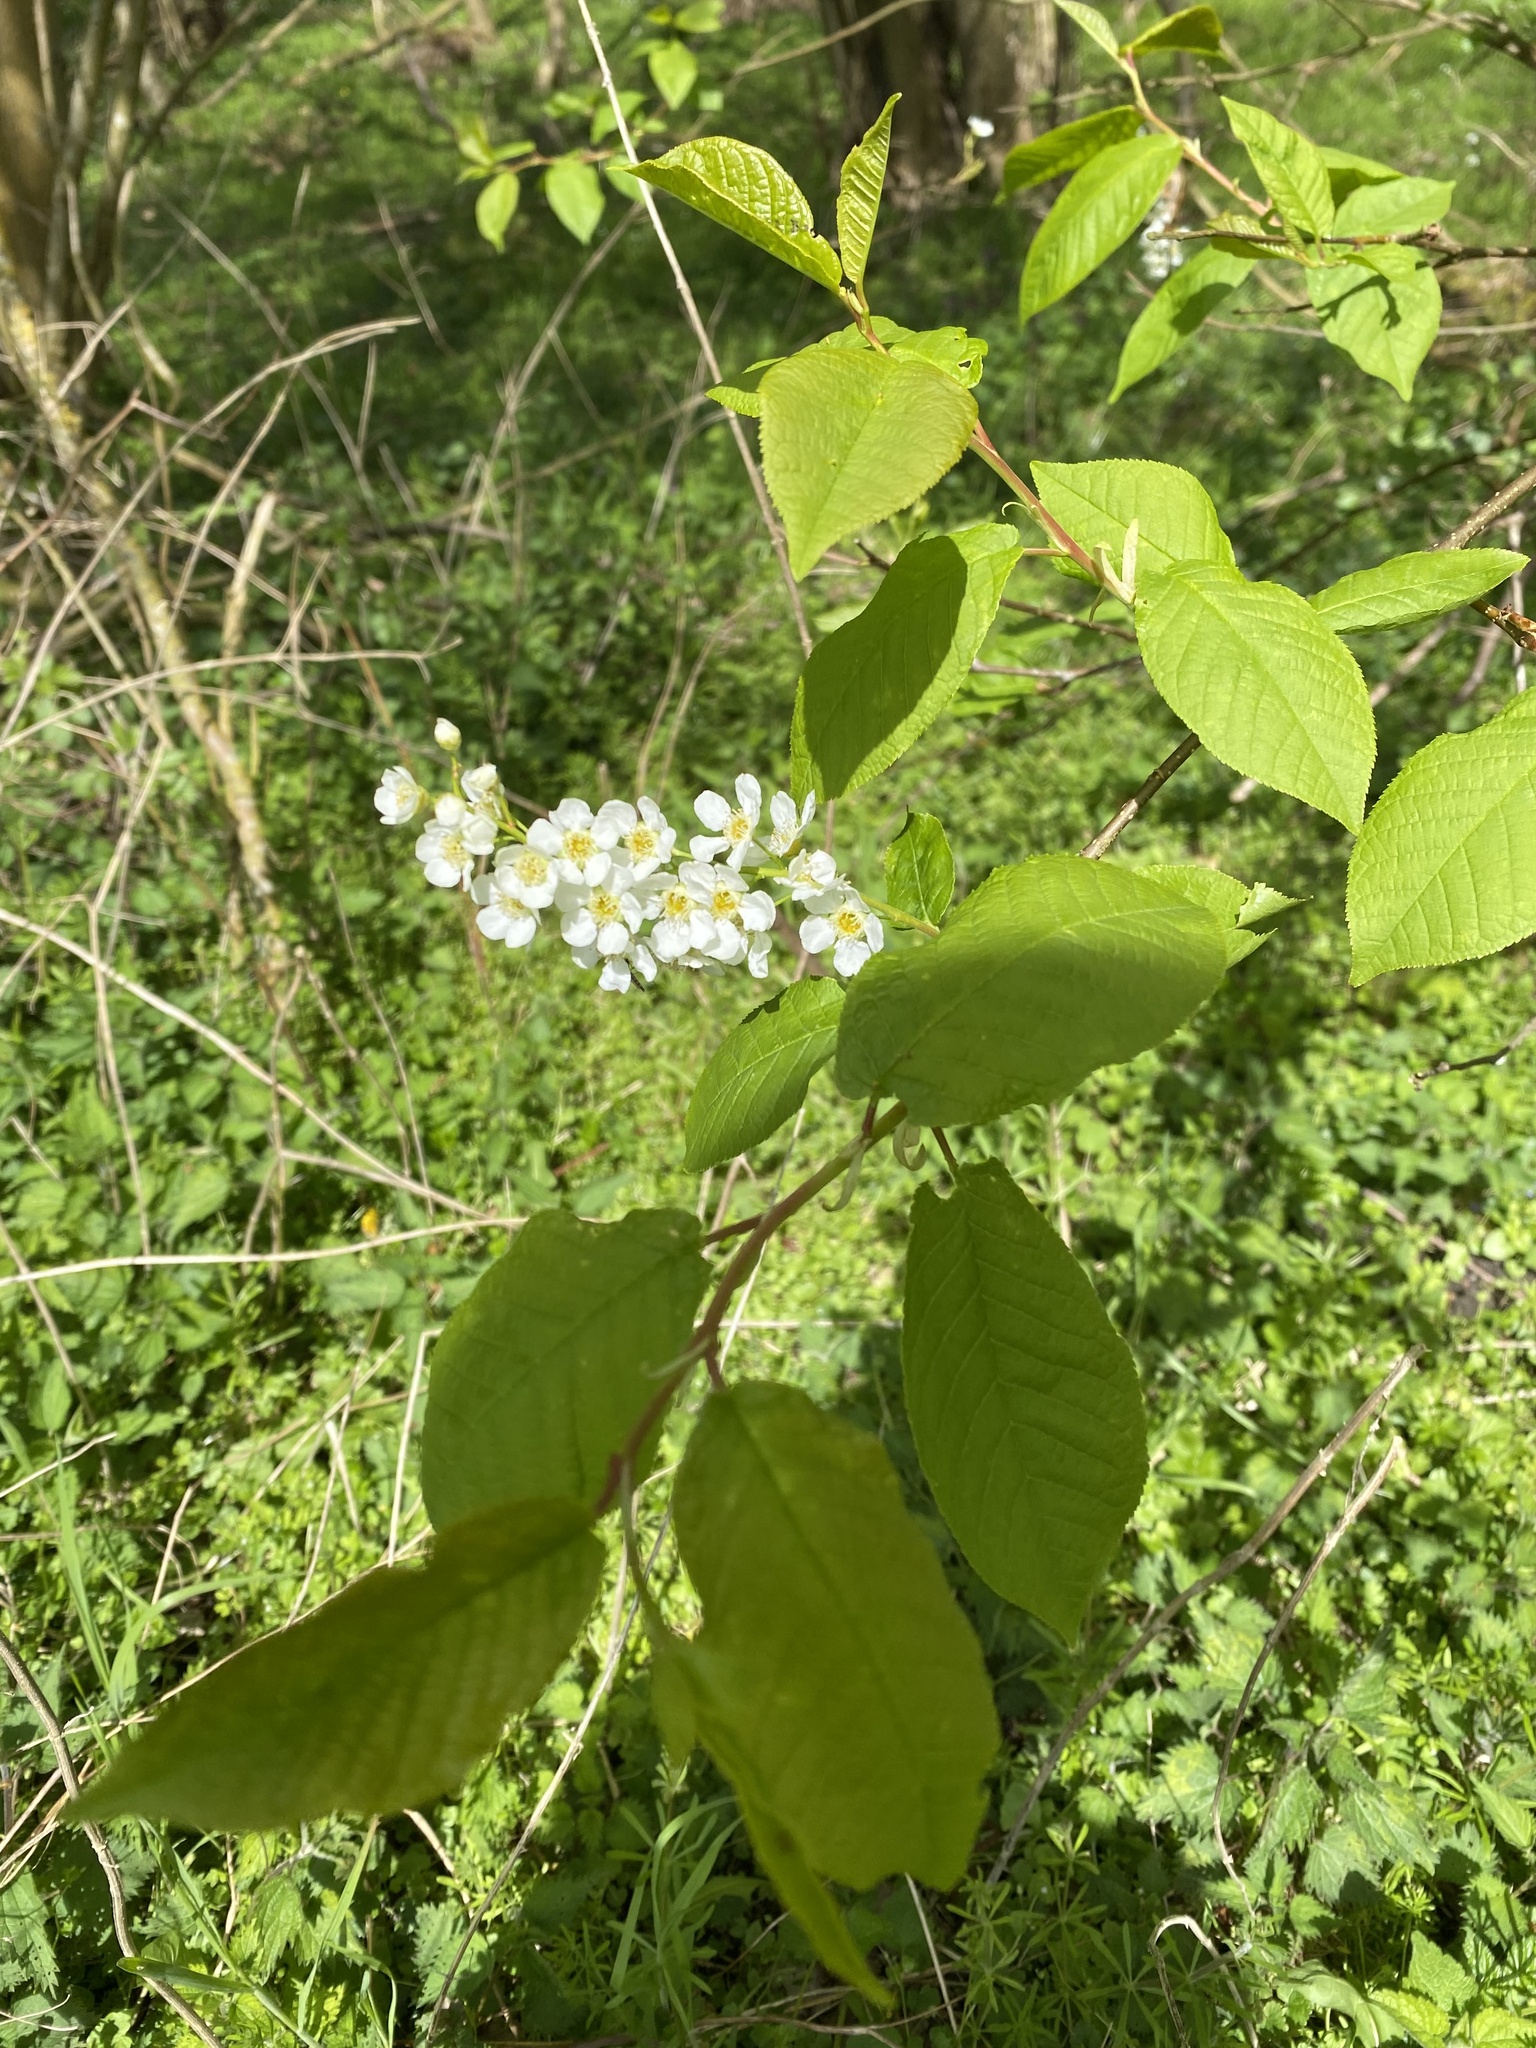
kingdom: Plantae
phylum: Tracheophyta
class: Magnoliopsida
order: Rosales
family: Rosaceae
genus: Prunus
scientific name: Prunus padus
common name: Bird cherry
